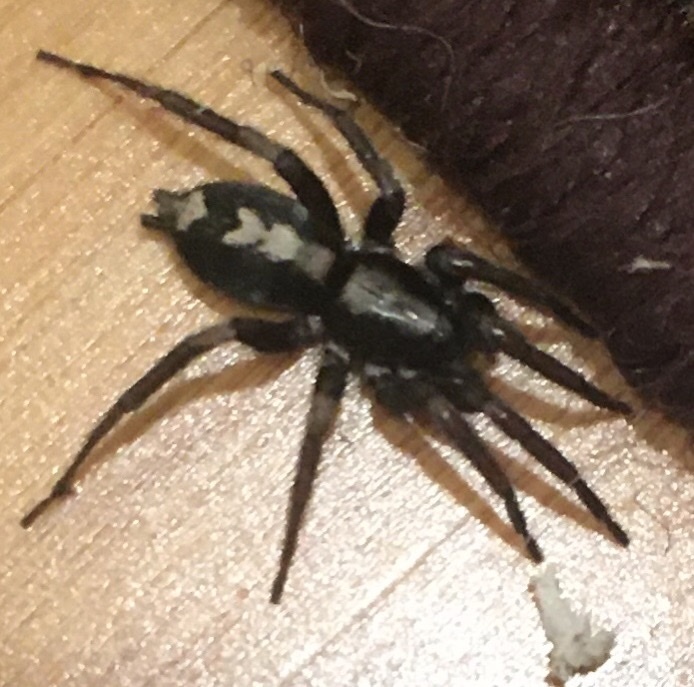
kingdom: Animalia
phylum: Arthropoda
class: Arachnida
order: Araneae
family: Gnaphosidae
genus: Herpyllus
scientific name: Herpyllus ecclesiasticus
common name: Eastern parson spider
